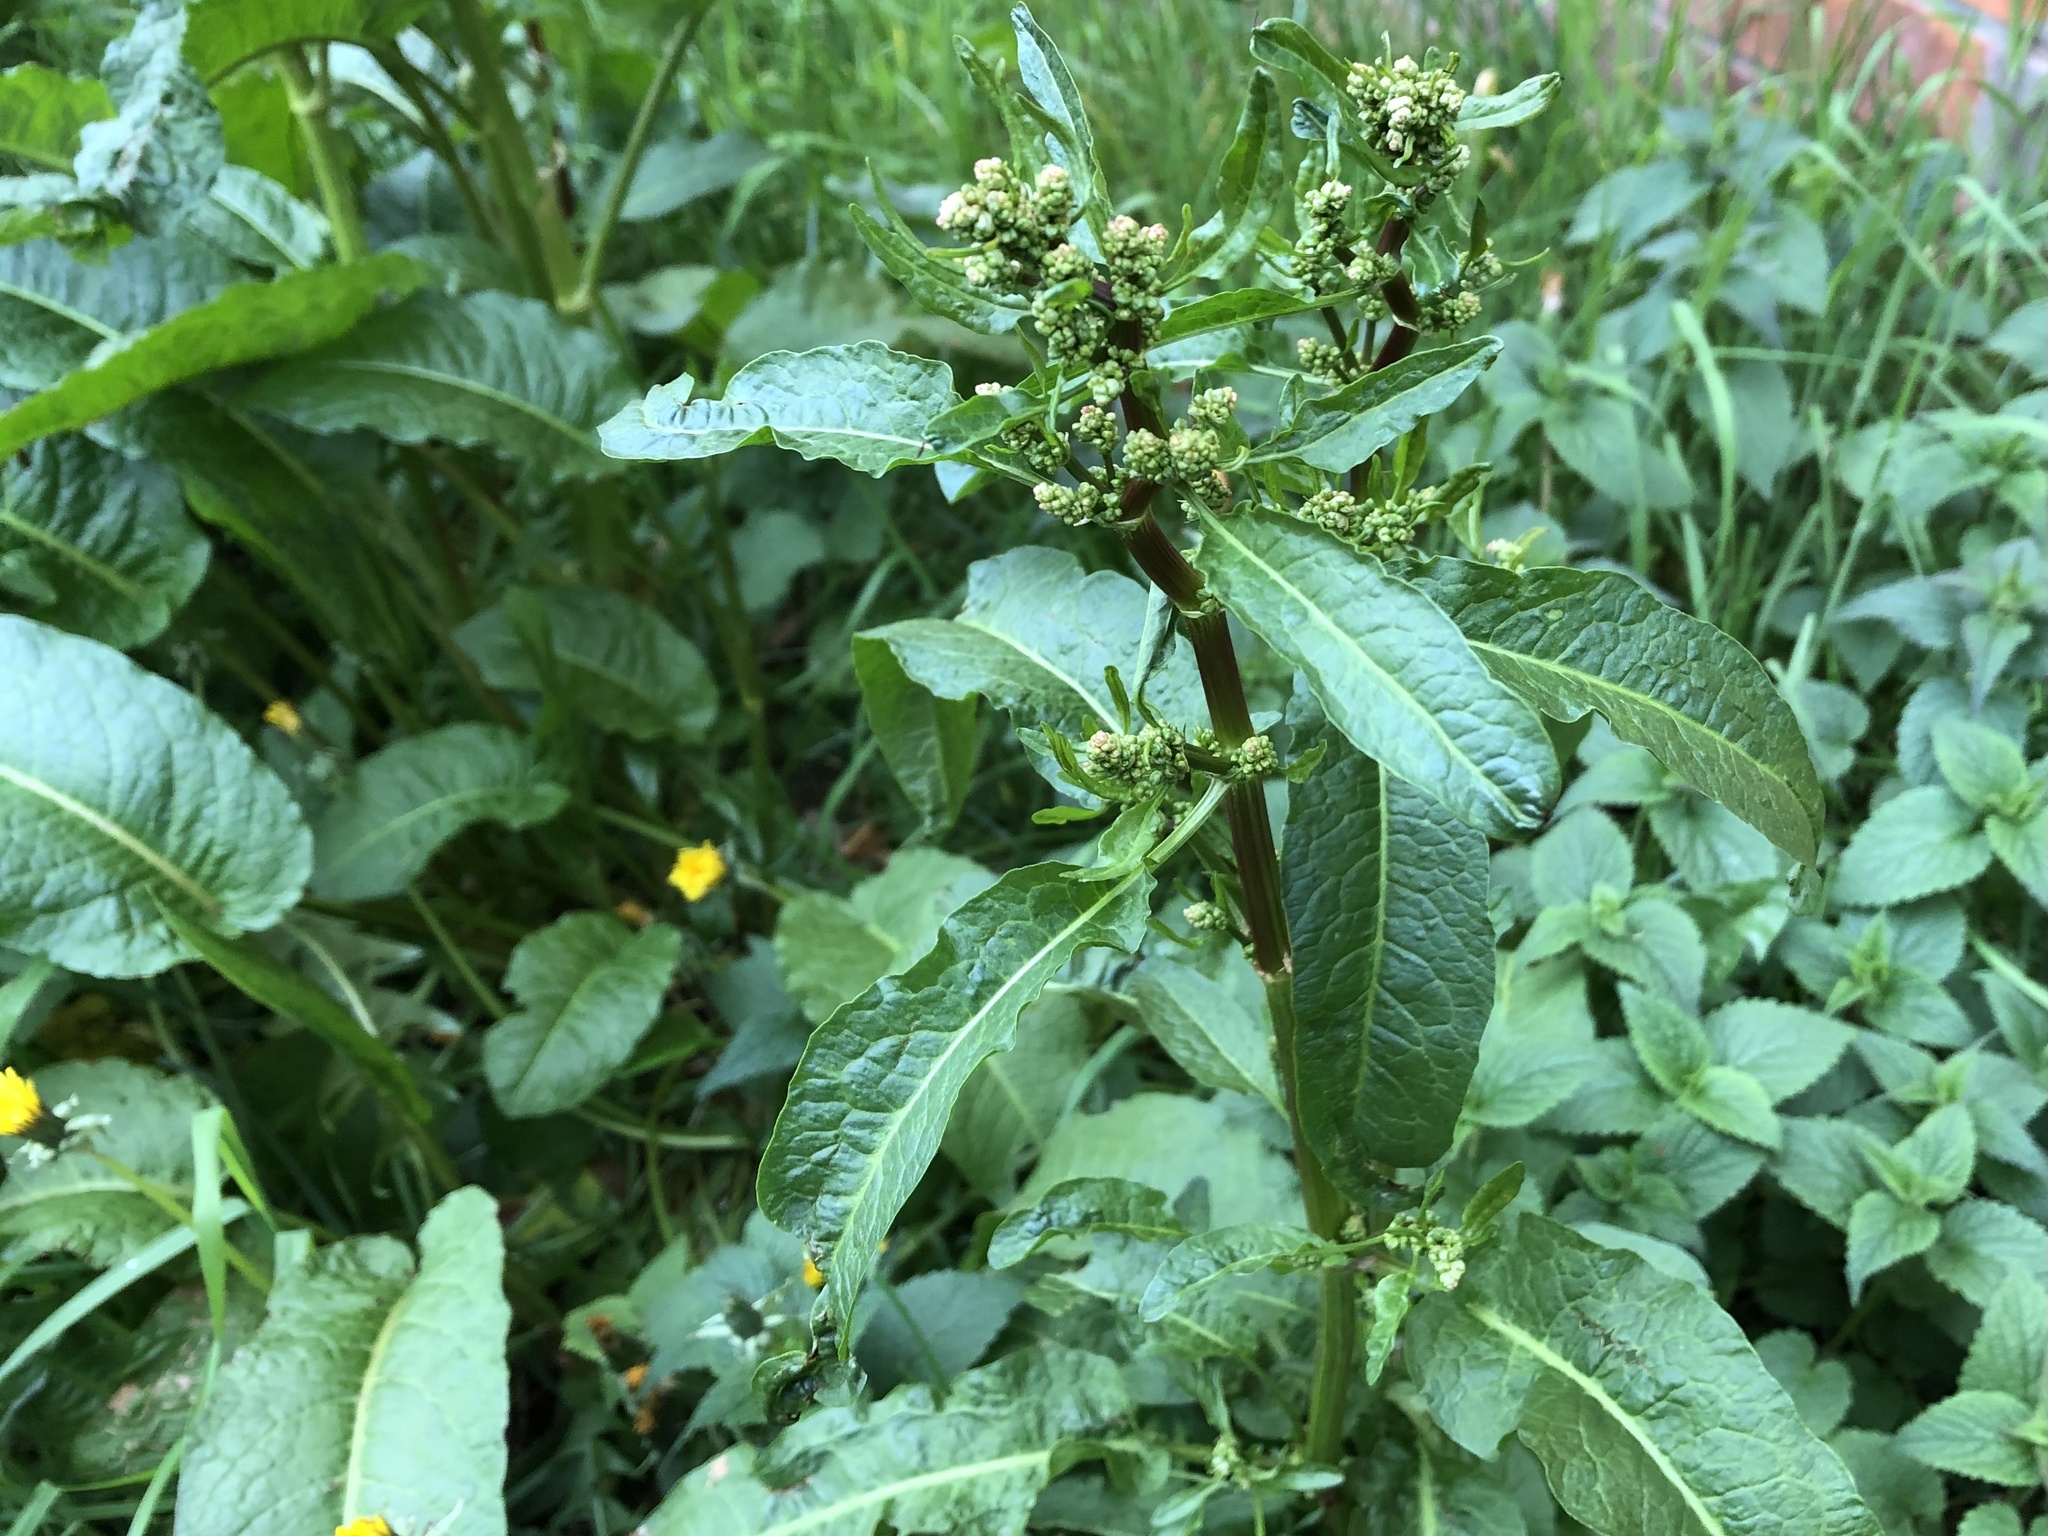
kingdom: Plantae
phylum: Tracheophyta
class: Magnoliopsida
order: Caryophyllales
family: Polygonaceae
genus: Rumex
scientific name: Rumex obtusifolius
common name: Bitter dock
